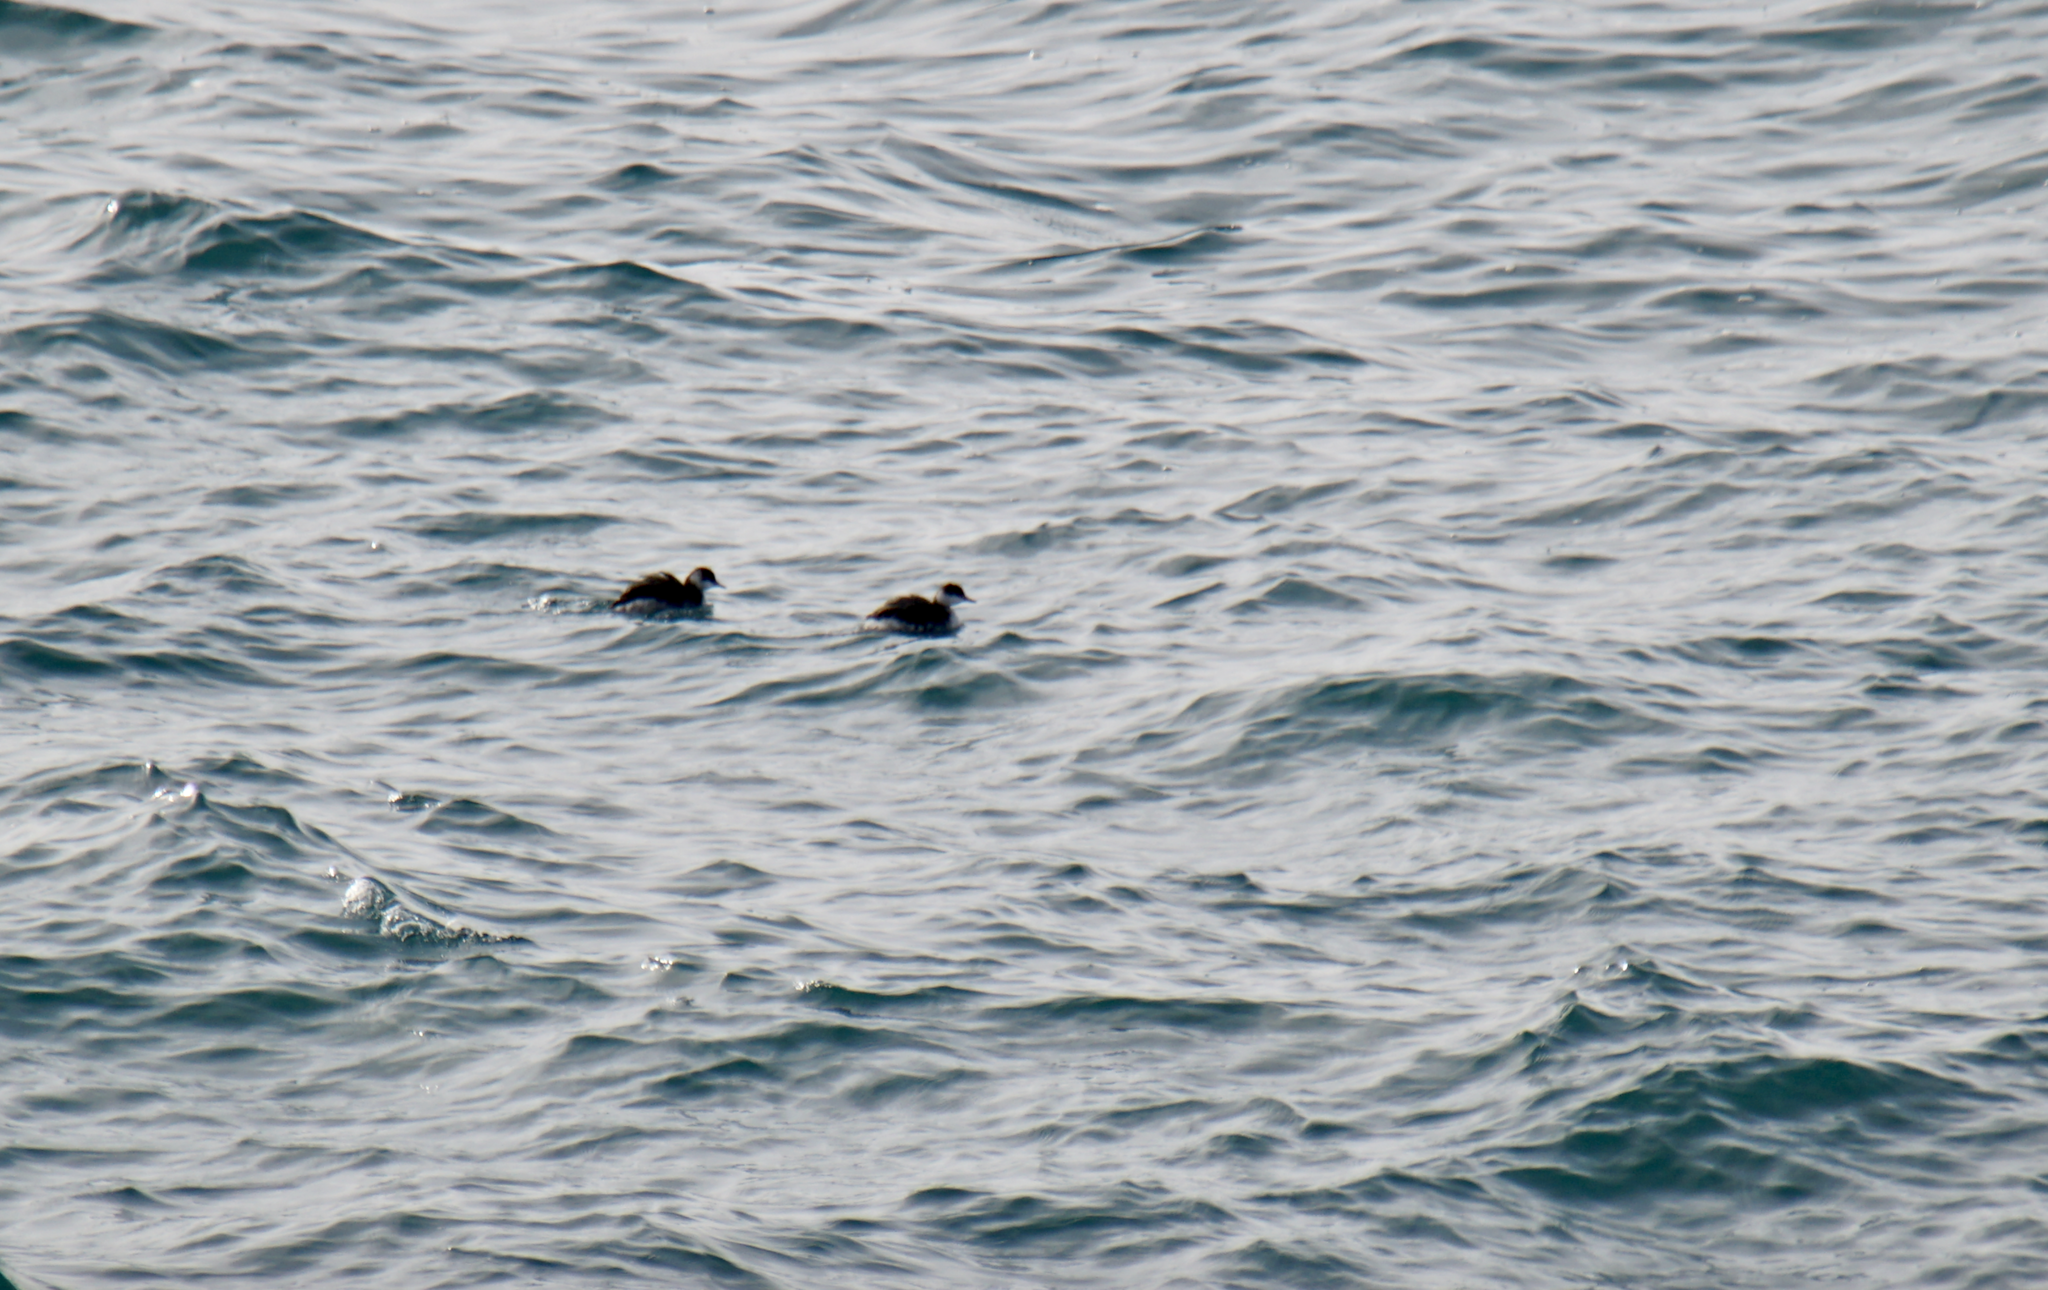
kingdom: Animalia
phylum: Chordata
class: Aves
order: Podicipediformes
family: Podicipedidae
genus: Podiceps
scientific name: Podiceps auritus
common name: Horned grebe
